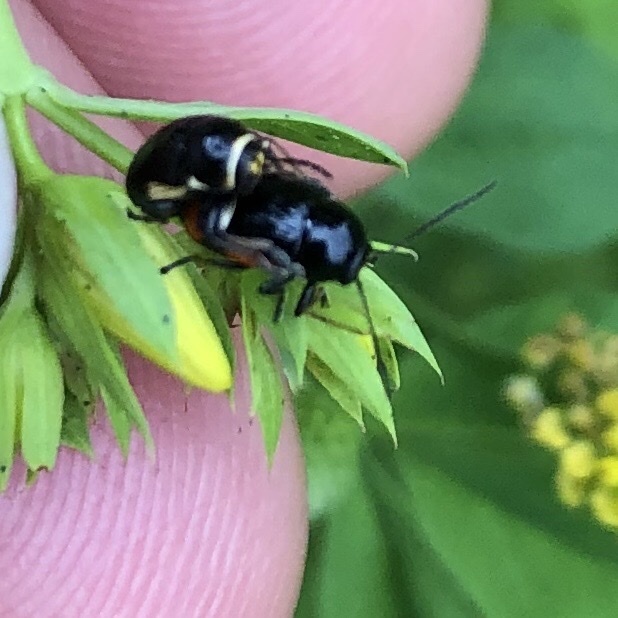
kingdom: Animalia
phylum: Arthropoda
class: Insecta
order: Coleoptera
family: Chrysomelidae
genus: Cryptocephalus
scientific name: Cryptocephalus moraei
